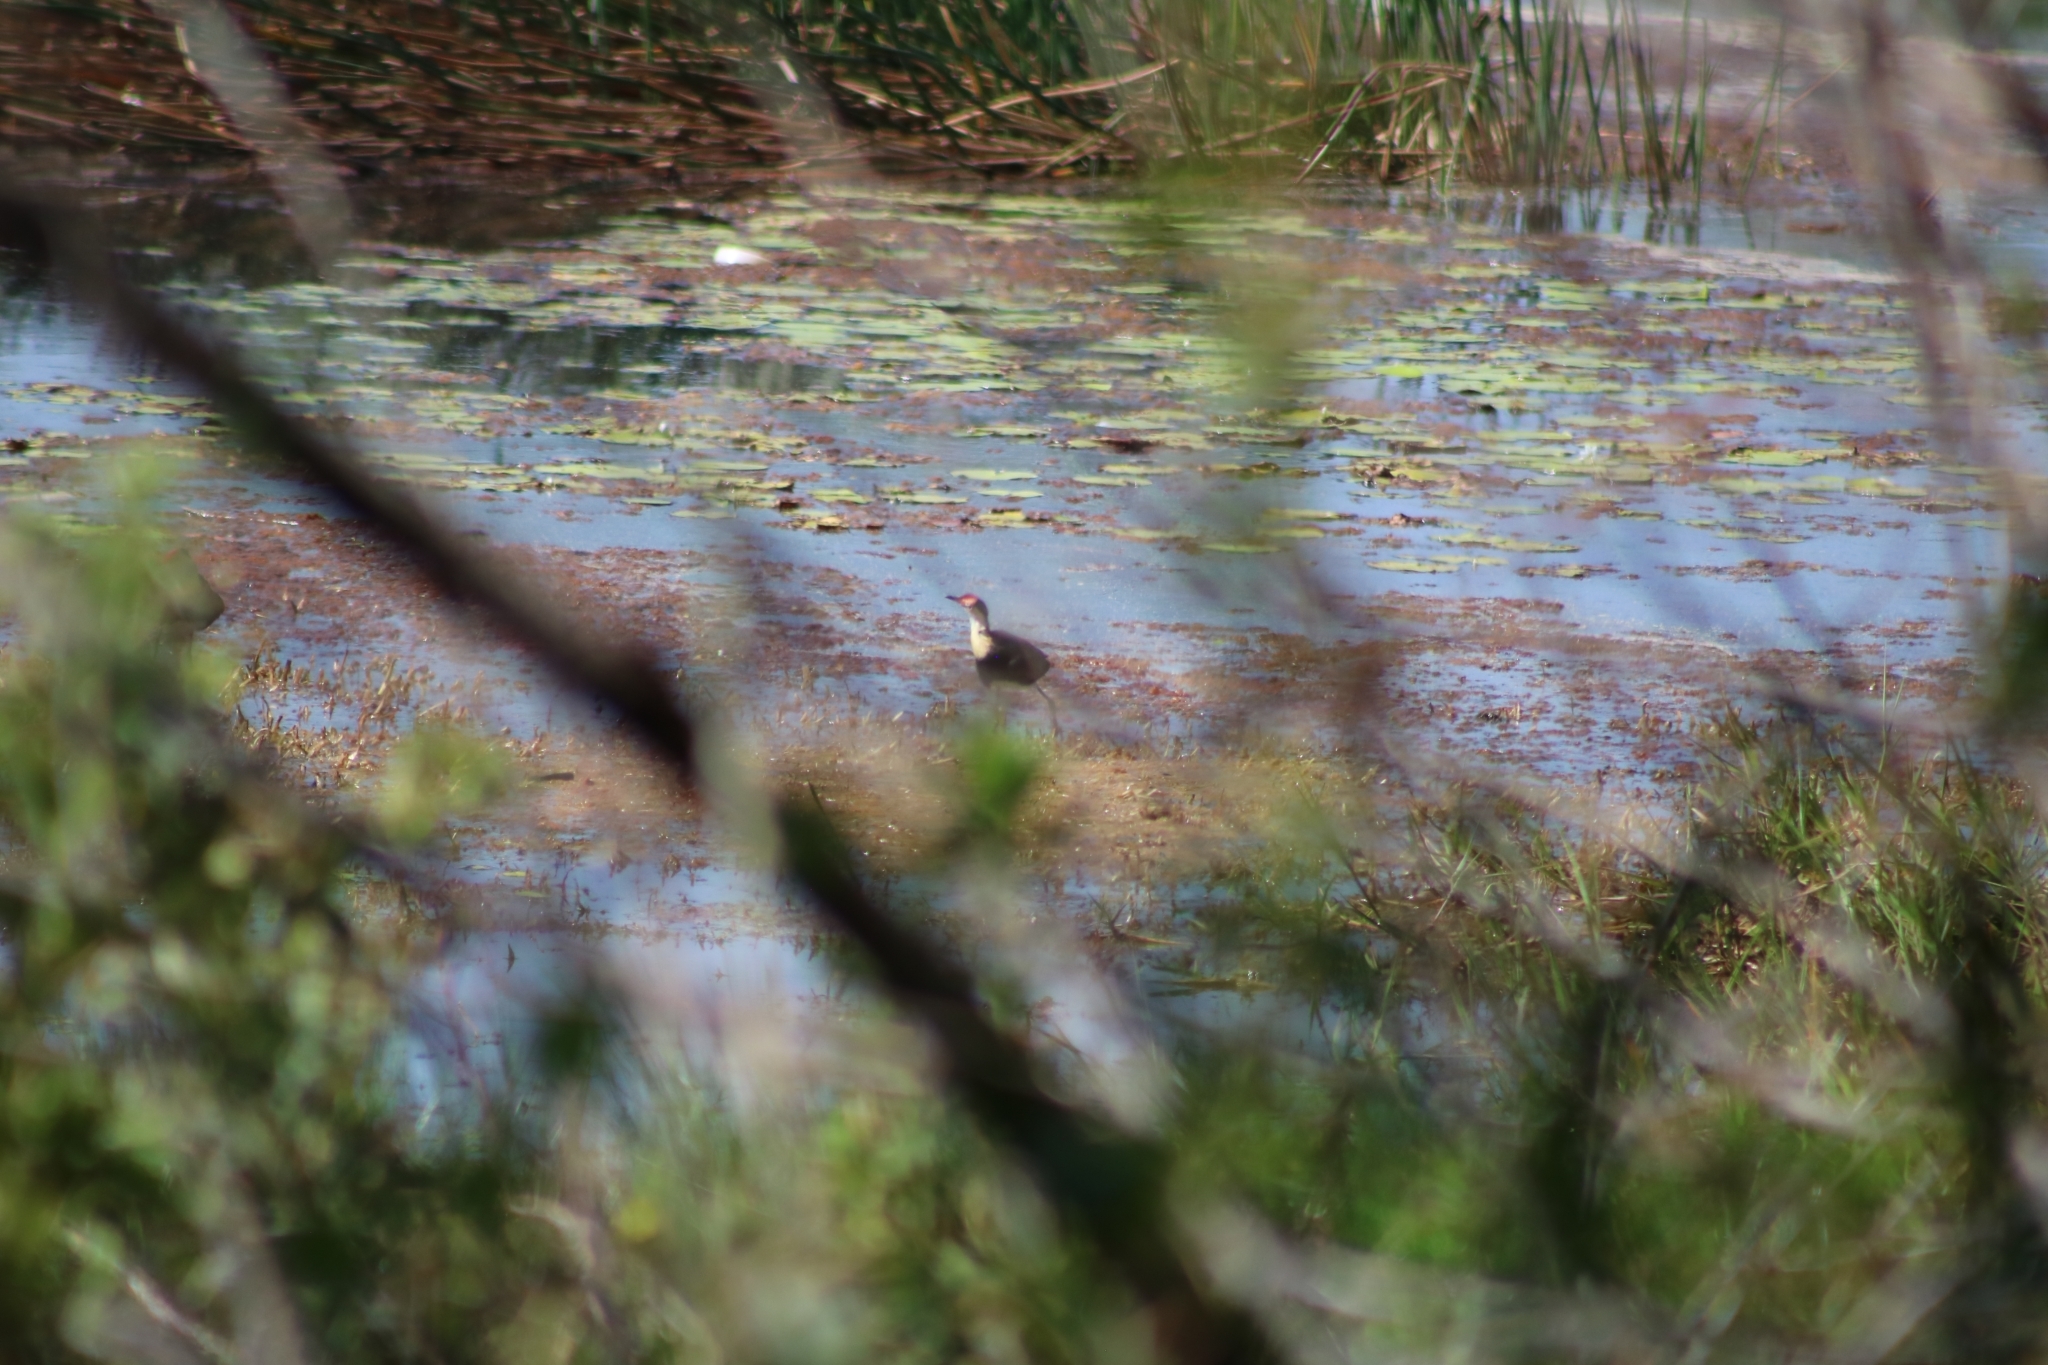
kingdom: Animalia
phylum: Chordata
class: Aves
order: Charadriiformes
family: Jacanidae
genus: Irediparra
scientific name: Irediparra gallinacea
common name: Comb-crested jacana
